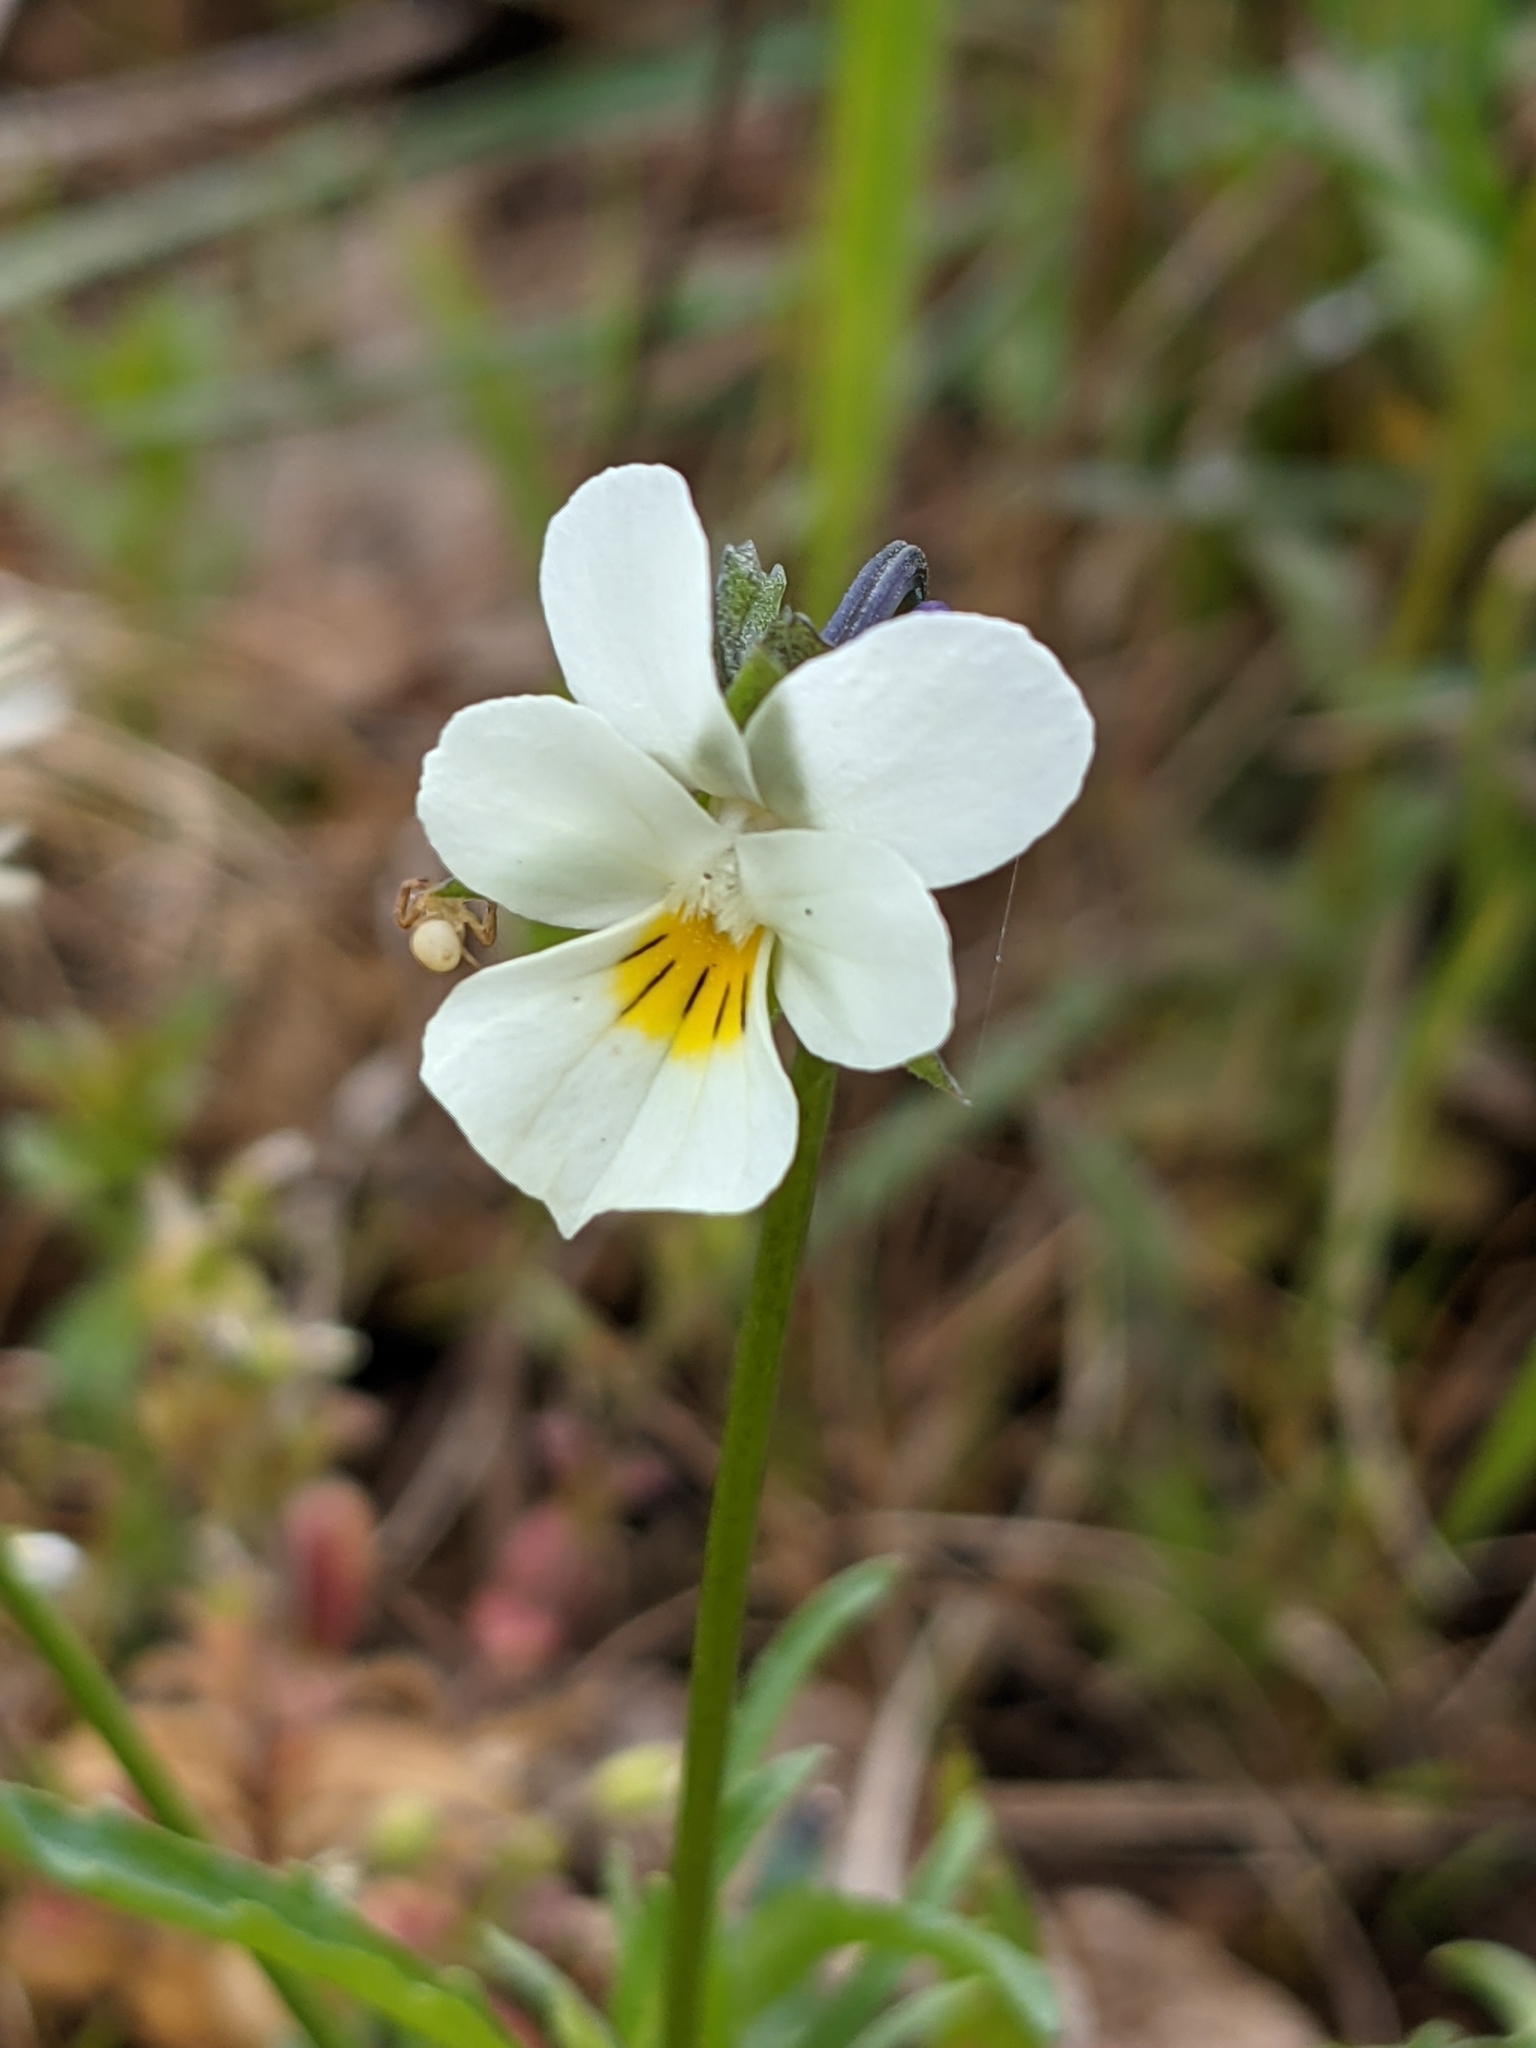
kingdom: Plantae
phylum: Tracheophyta
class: Magnoliopsida
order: Malpighiales
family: Violaceae
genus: Viola
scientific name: Viola arvensis
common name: Field pansy
